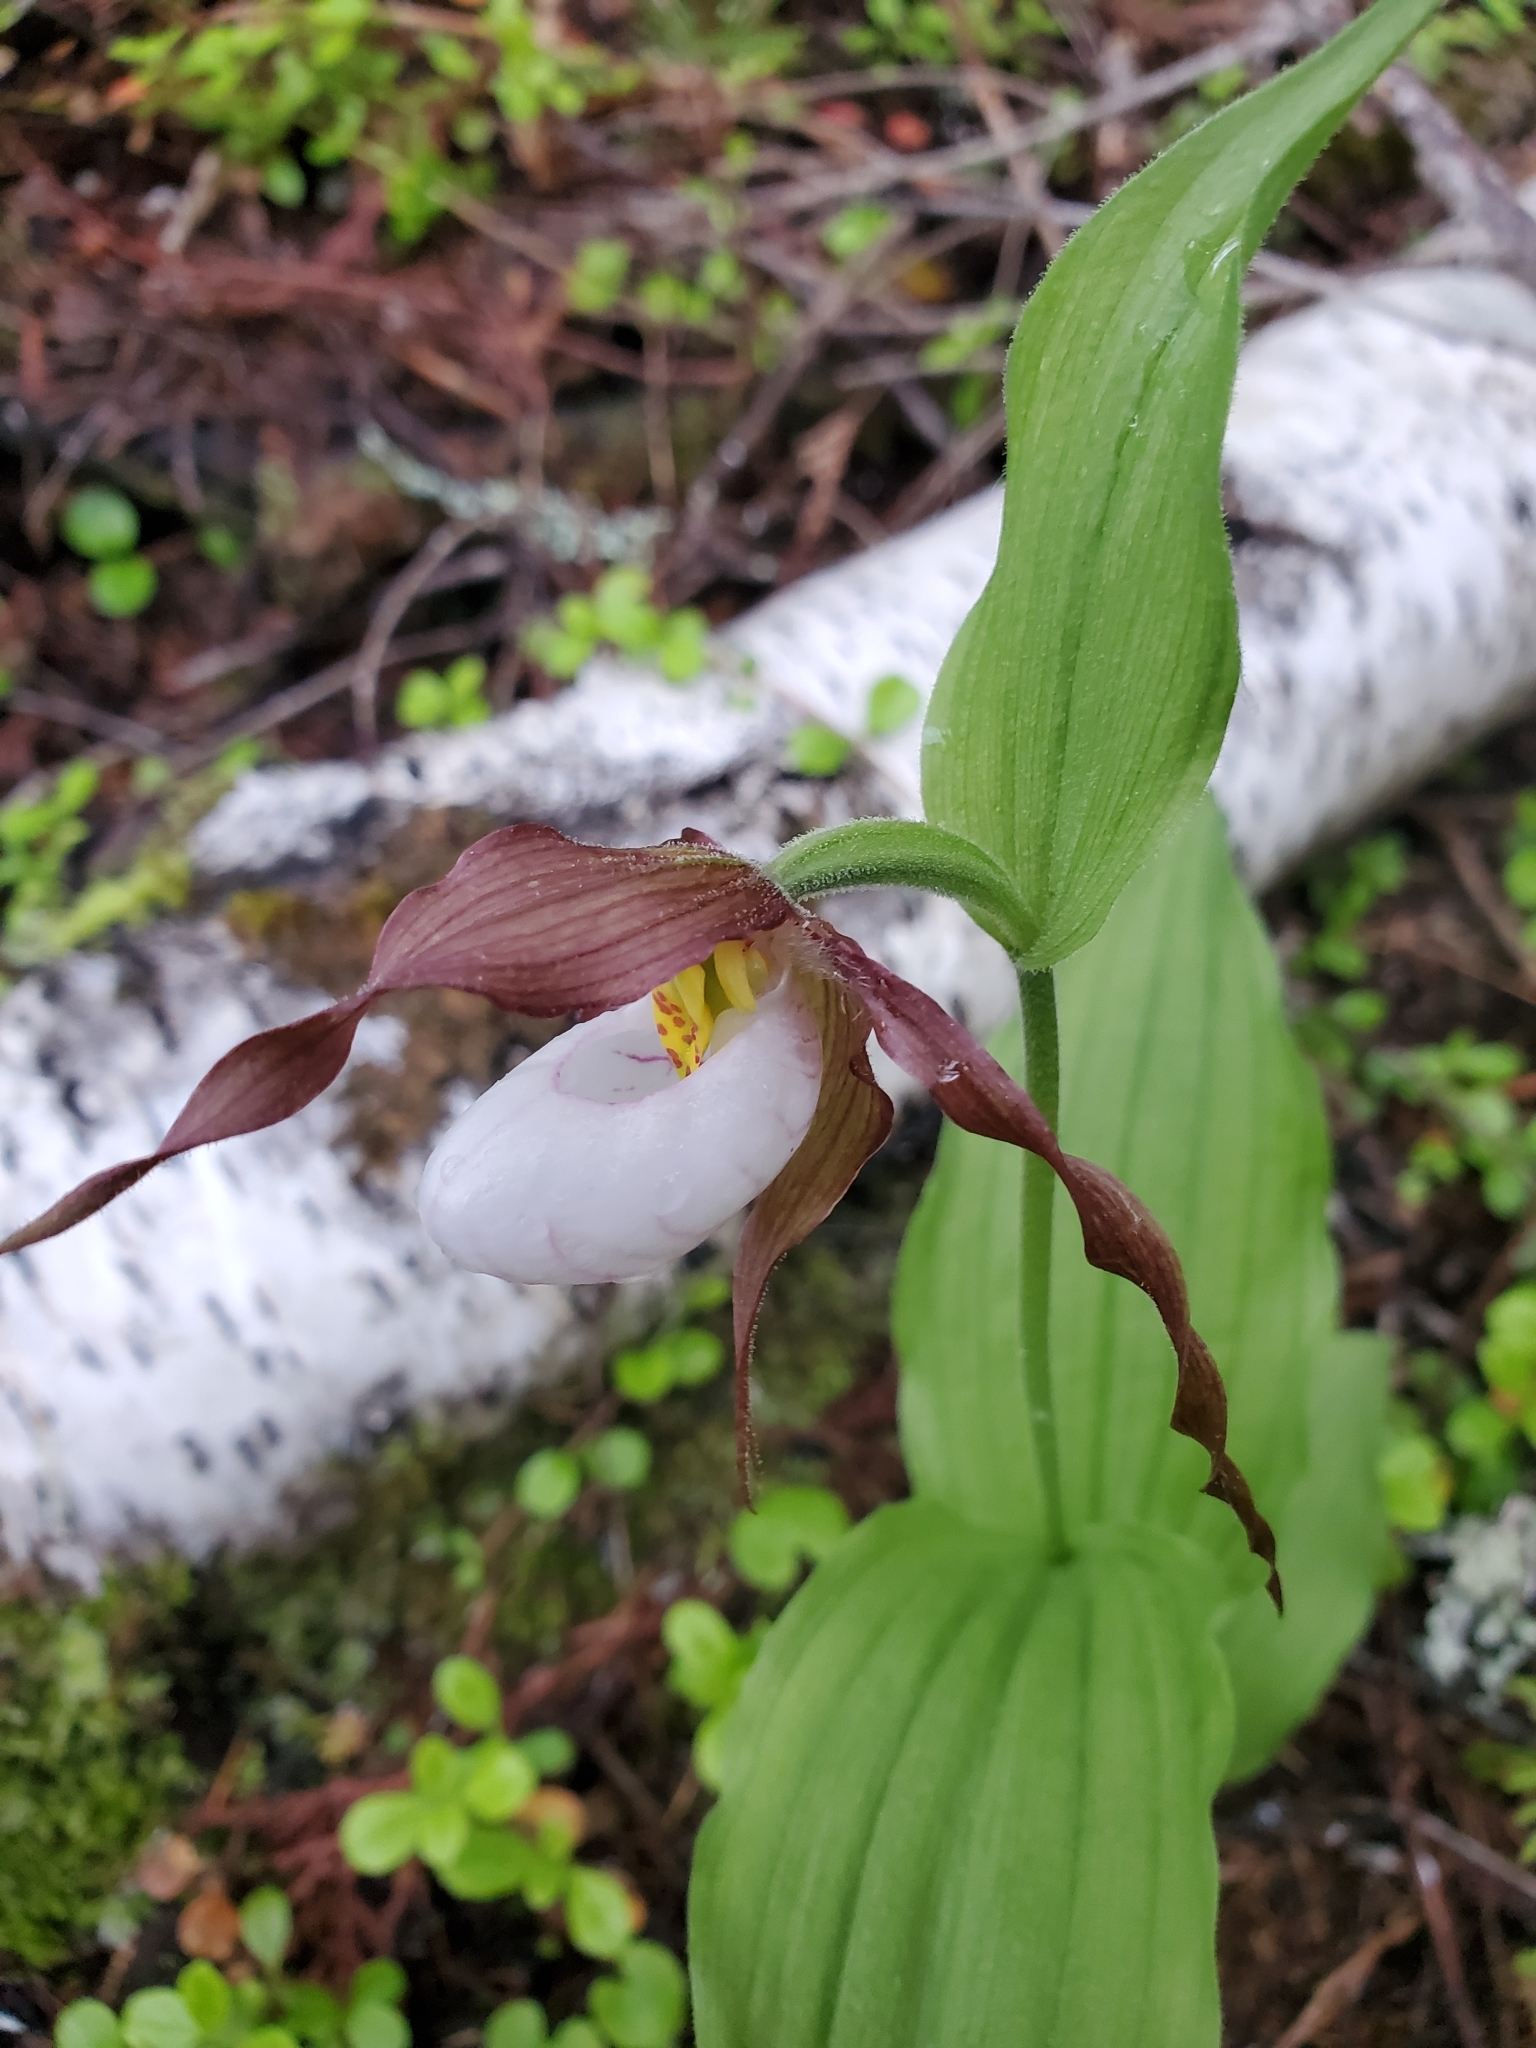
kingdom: Plantae
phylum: Tracheophyta
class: Liliopsida
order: Asparagales
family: Orchidaceae
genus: Cypripedium
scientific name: Cypripedium montanum
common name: Mountain lady's-slipper
